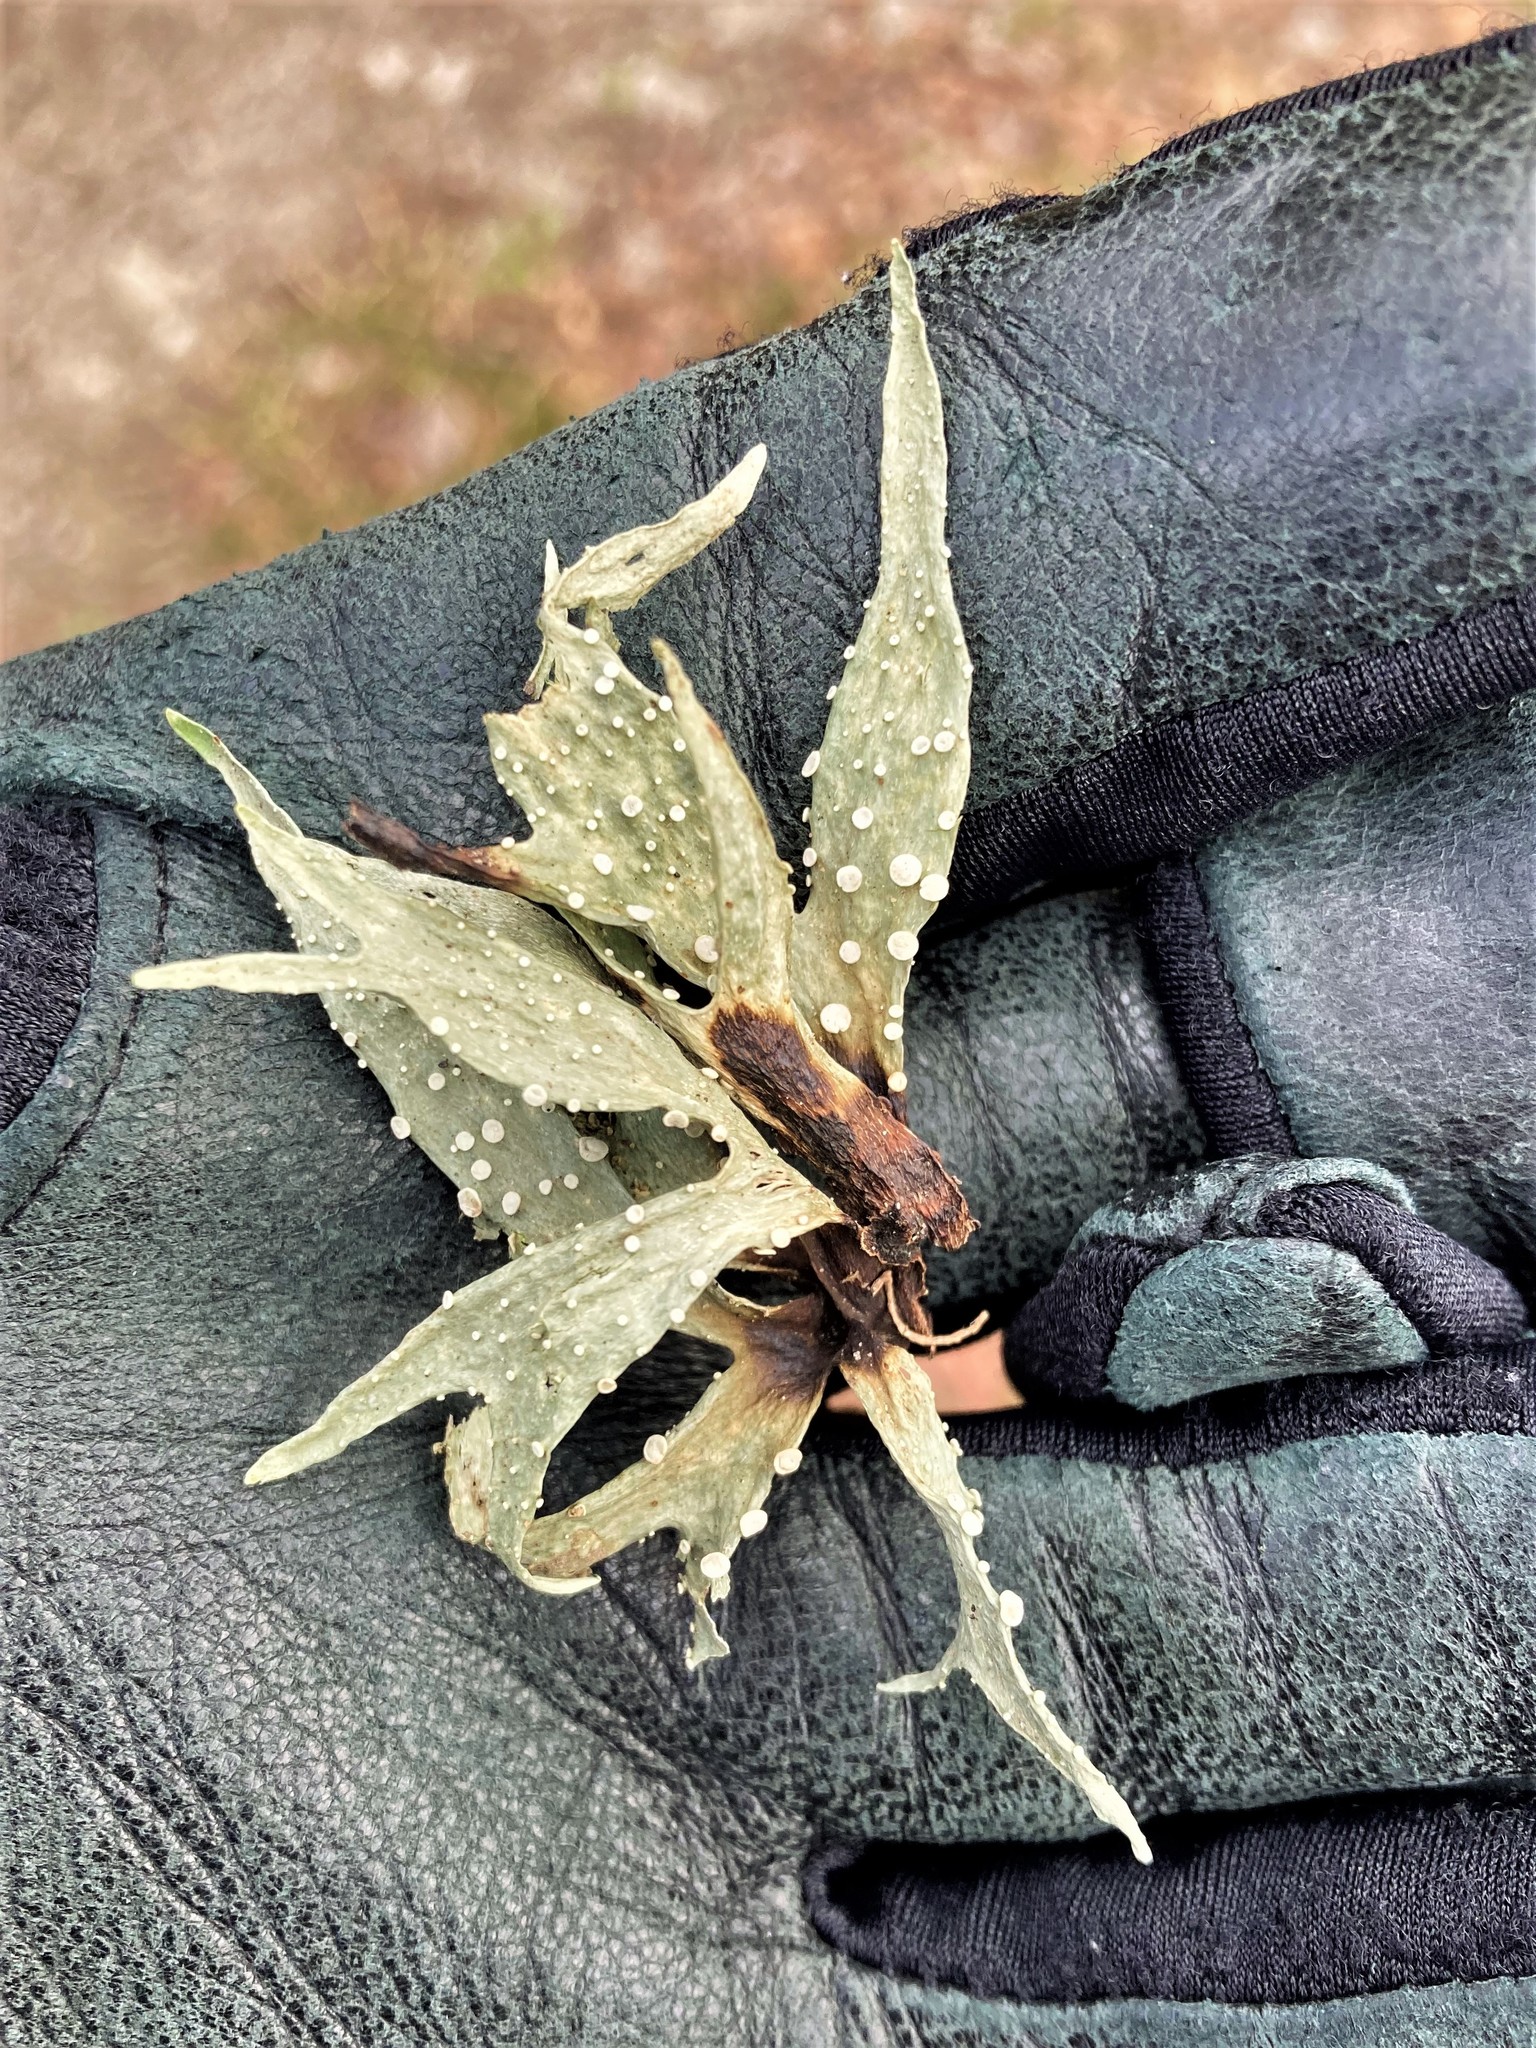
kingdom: Fungi
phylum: Ascomycota
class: Lecanoromycetes
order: Lecanorales
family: Ramalinaceae
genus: Ramalina
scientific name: Ramalina celastri
